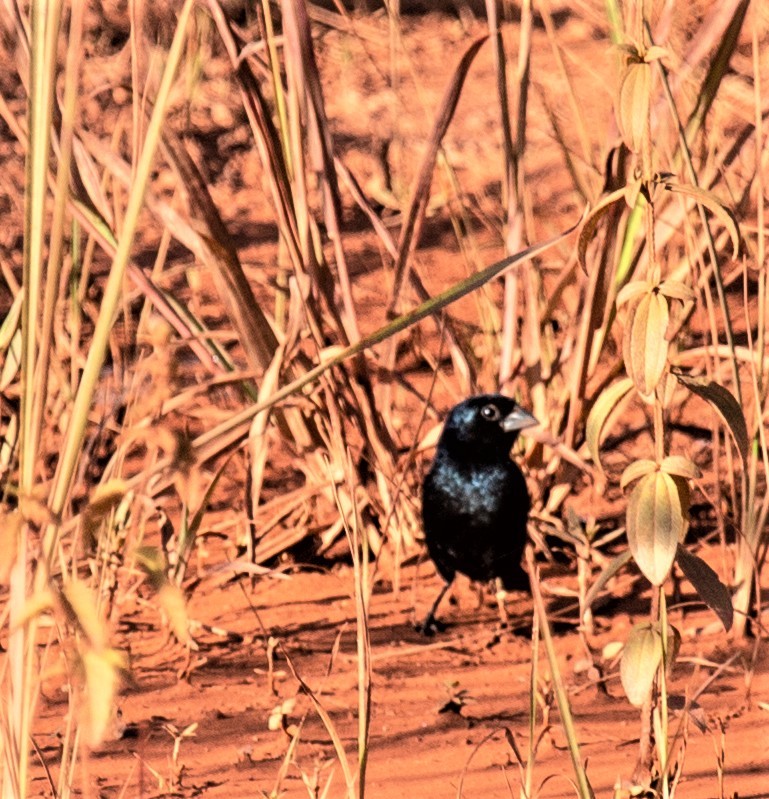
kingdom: Animalia
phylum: Chordata
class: Aves
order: Passeriformes
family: Thraupidae
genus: Volatinia
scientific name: Volatinia jacarina
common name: Blue-black grassquit
